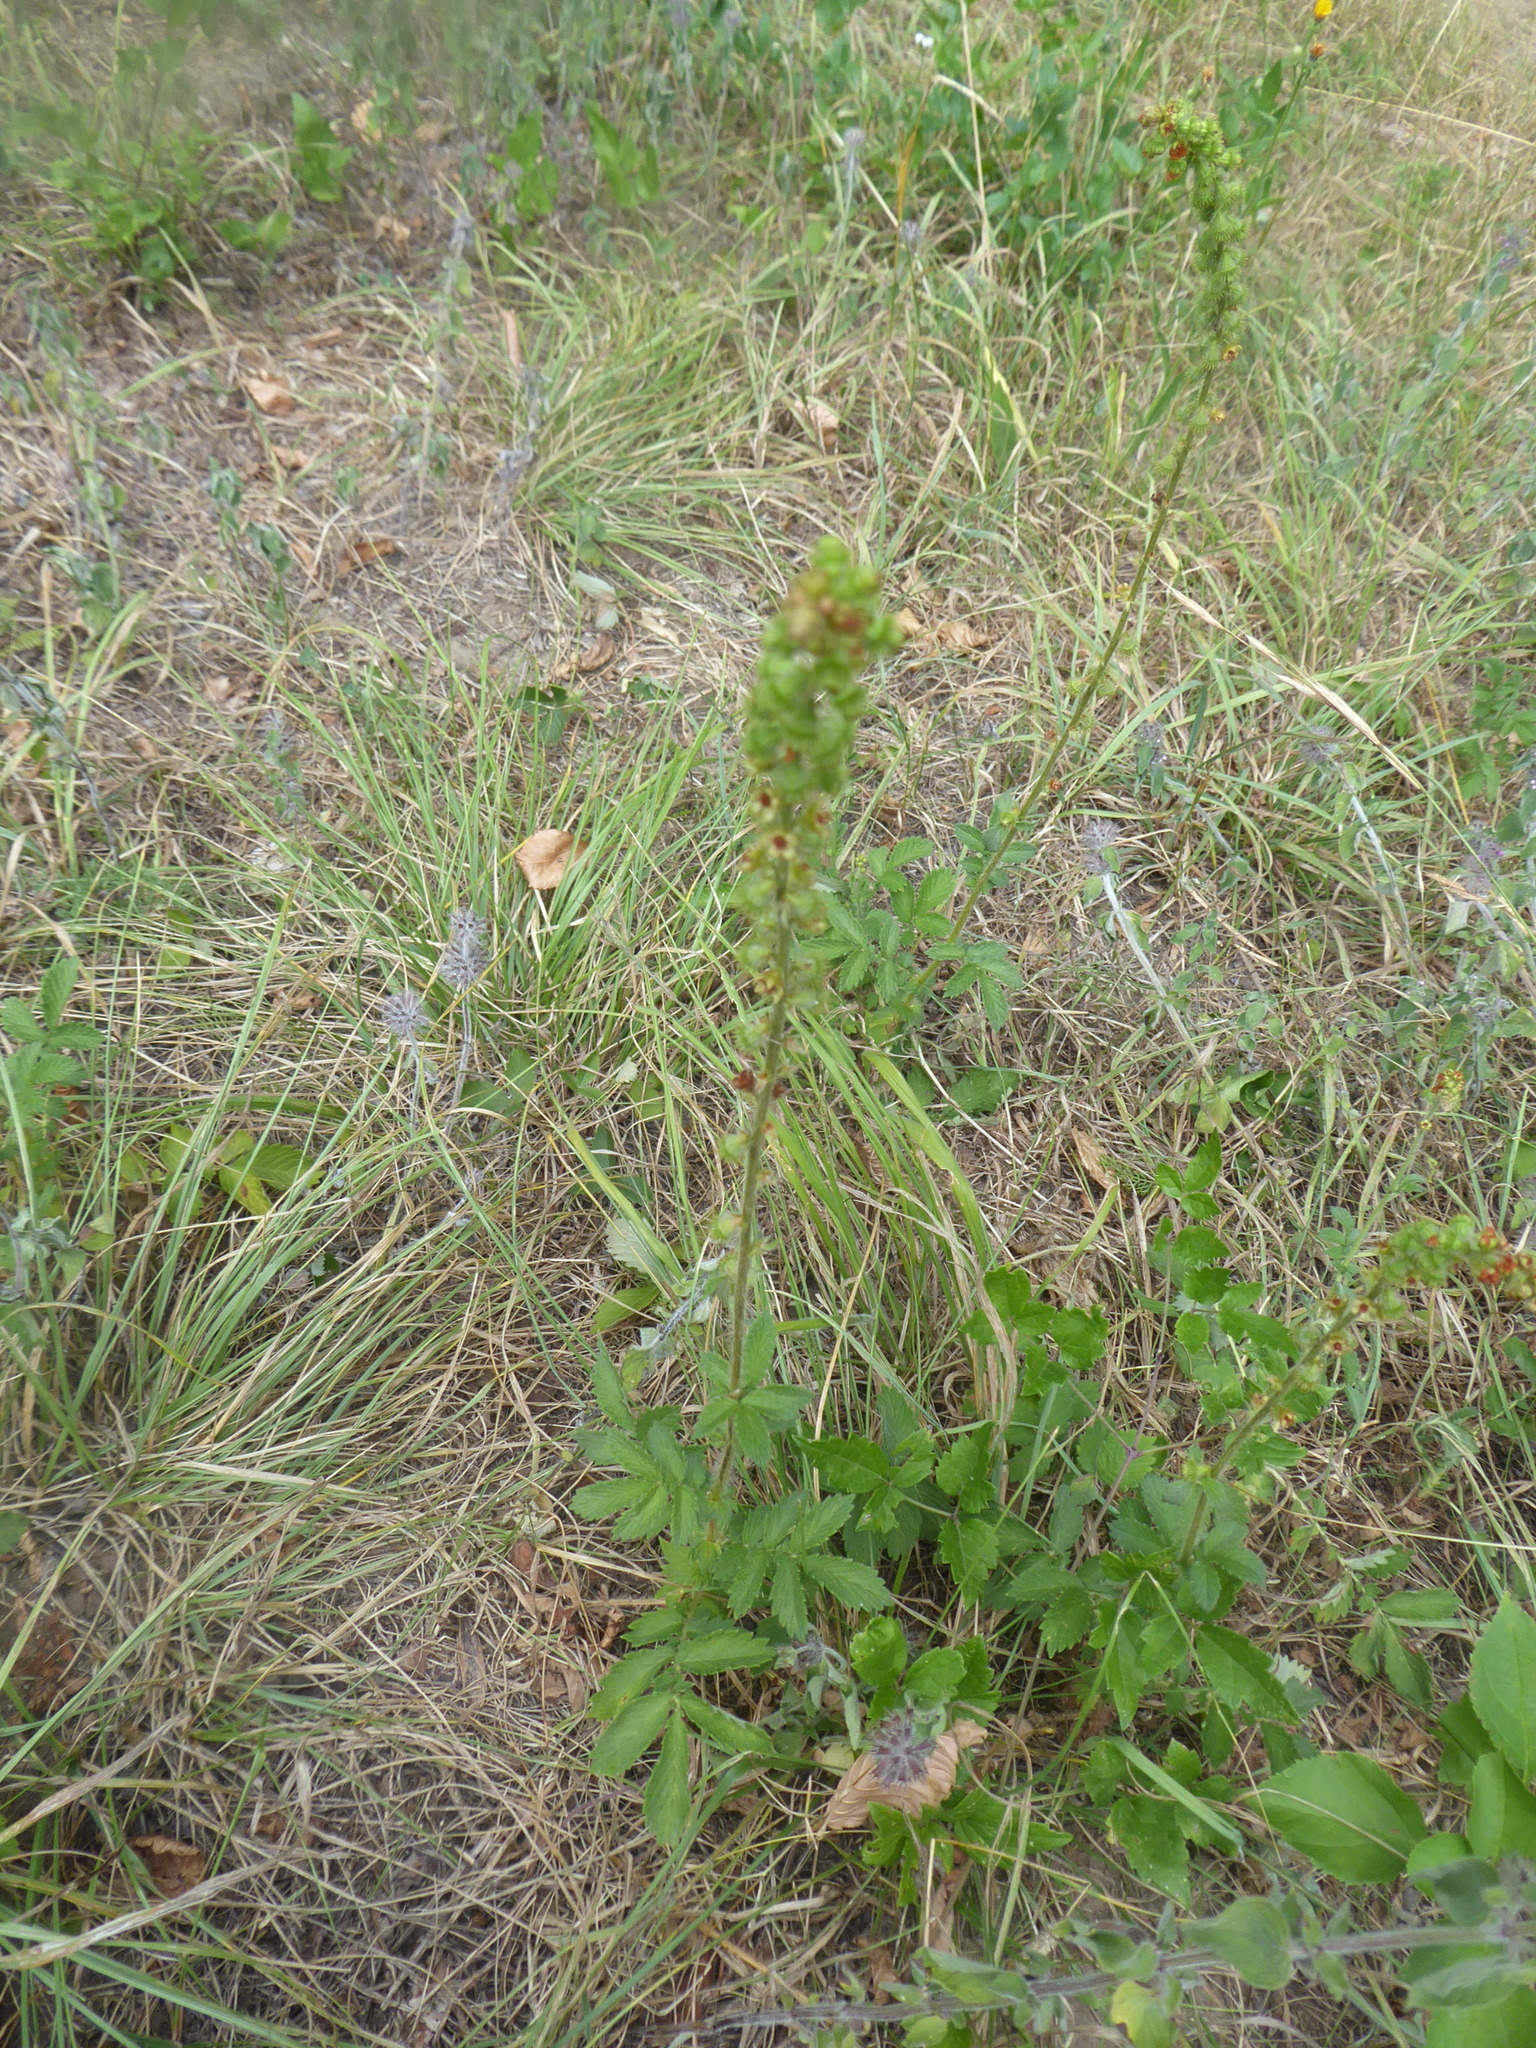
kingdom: Plantae
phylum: Tracheophyta
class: Magnoliopsida
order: Rosales
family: Rosaceae
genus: Agrimonia
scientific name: Agrimonia eupatoria
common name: Agrimony
